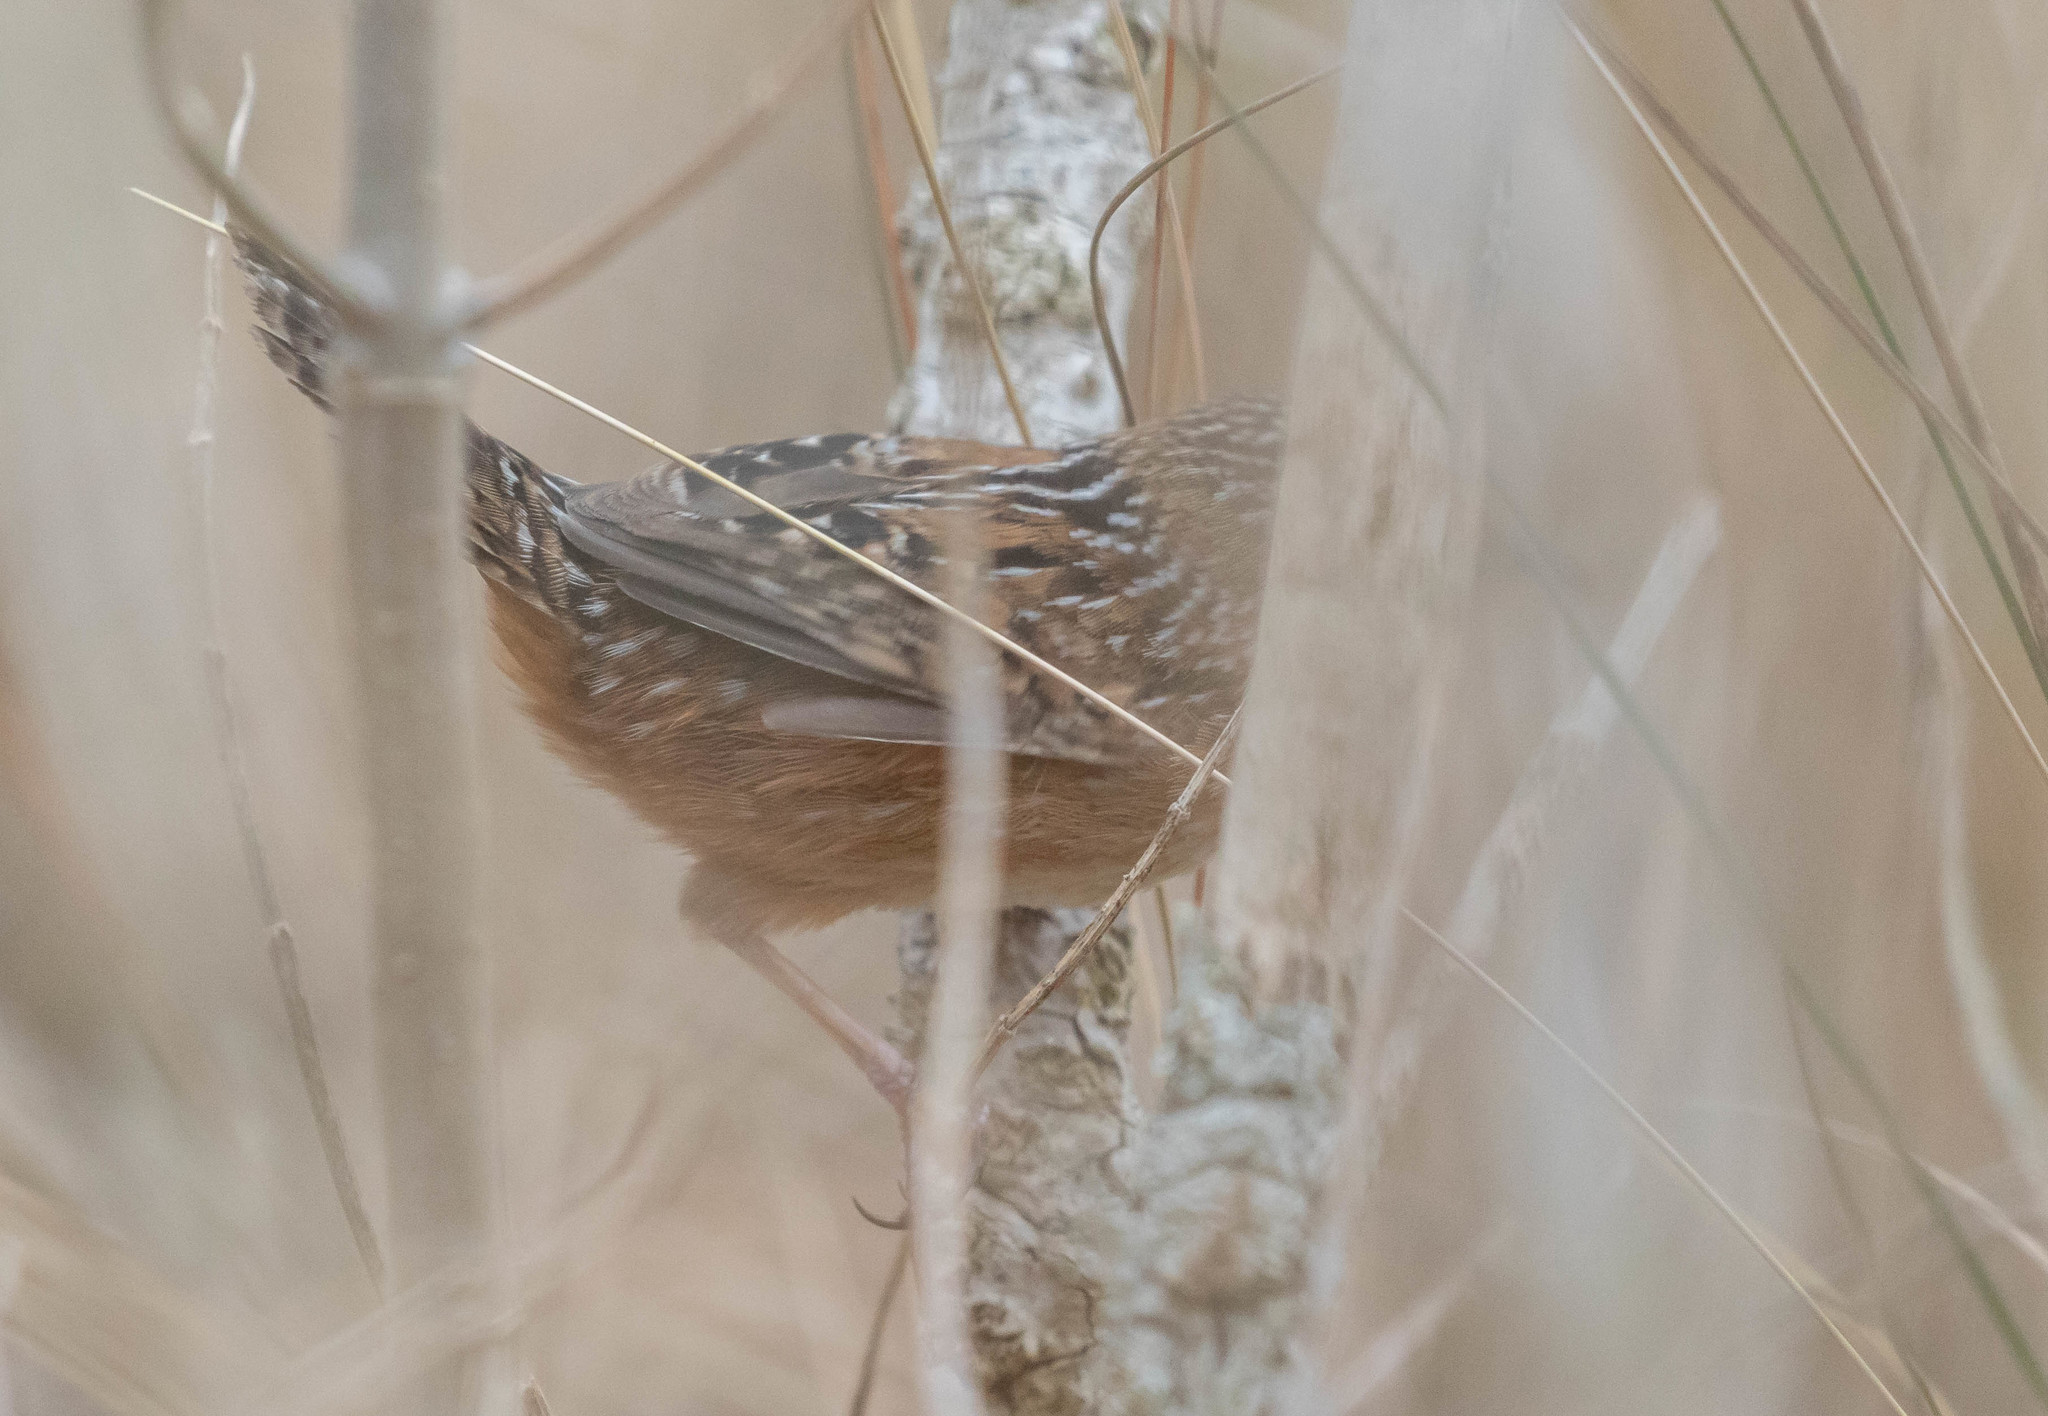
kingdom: Animalia
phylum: Chordata
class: Aves
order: Passeriformes
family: Troglodytidae
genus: Cistothorus
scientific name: Cistothorus platensis
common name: Sedge wren
